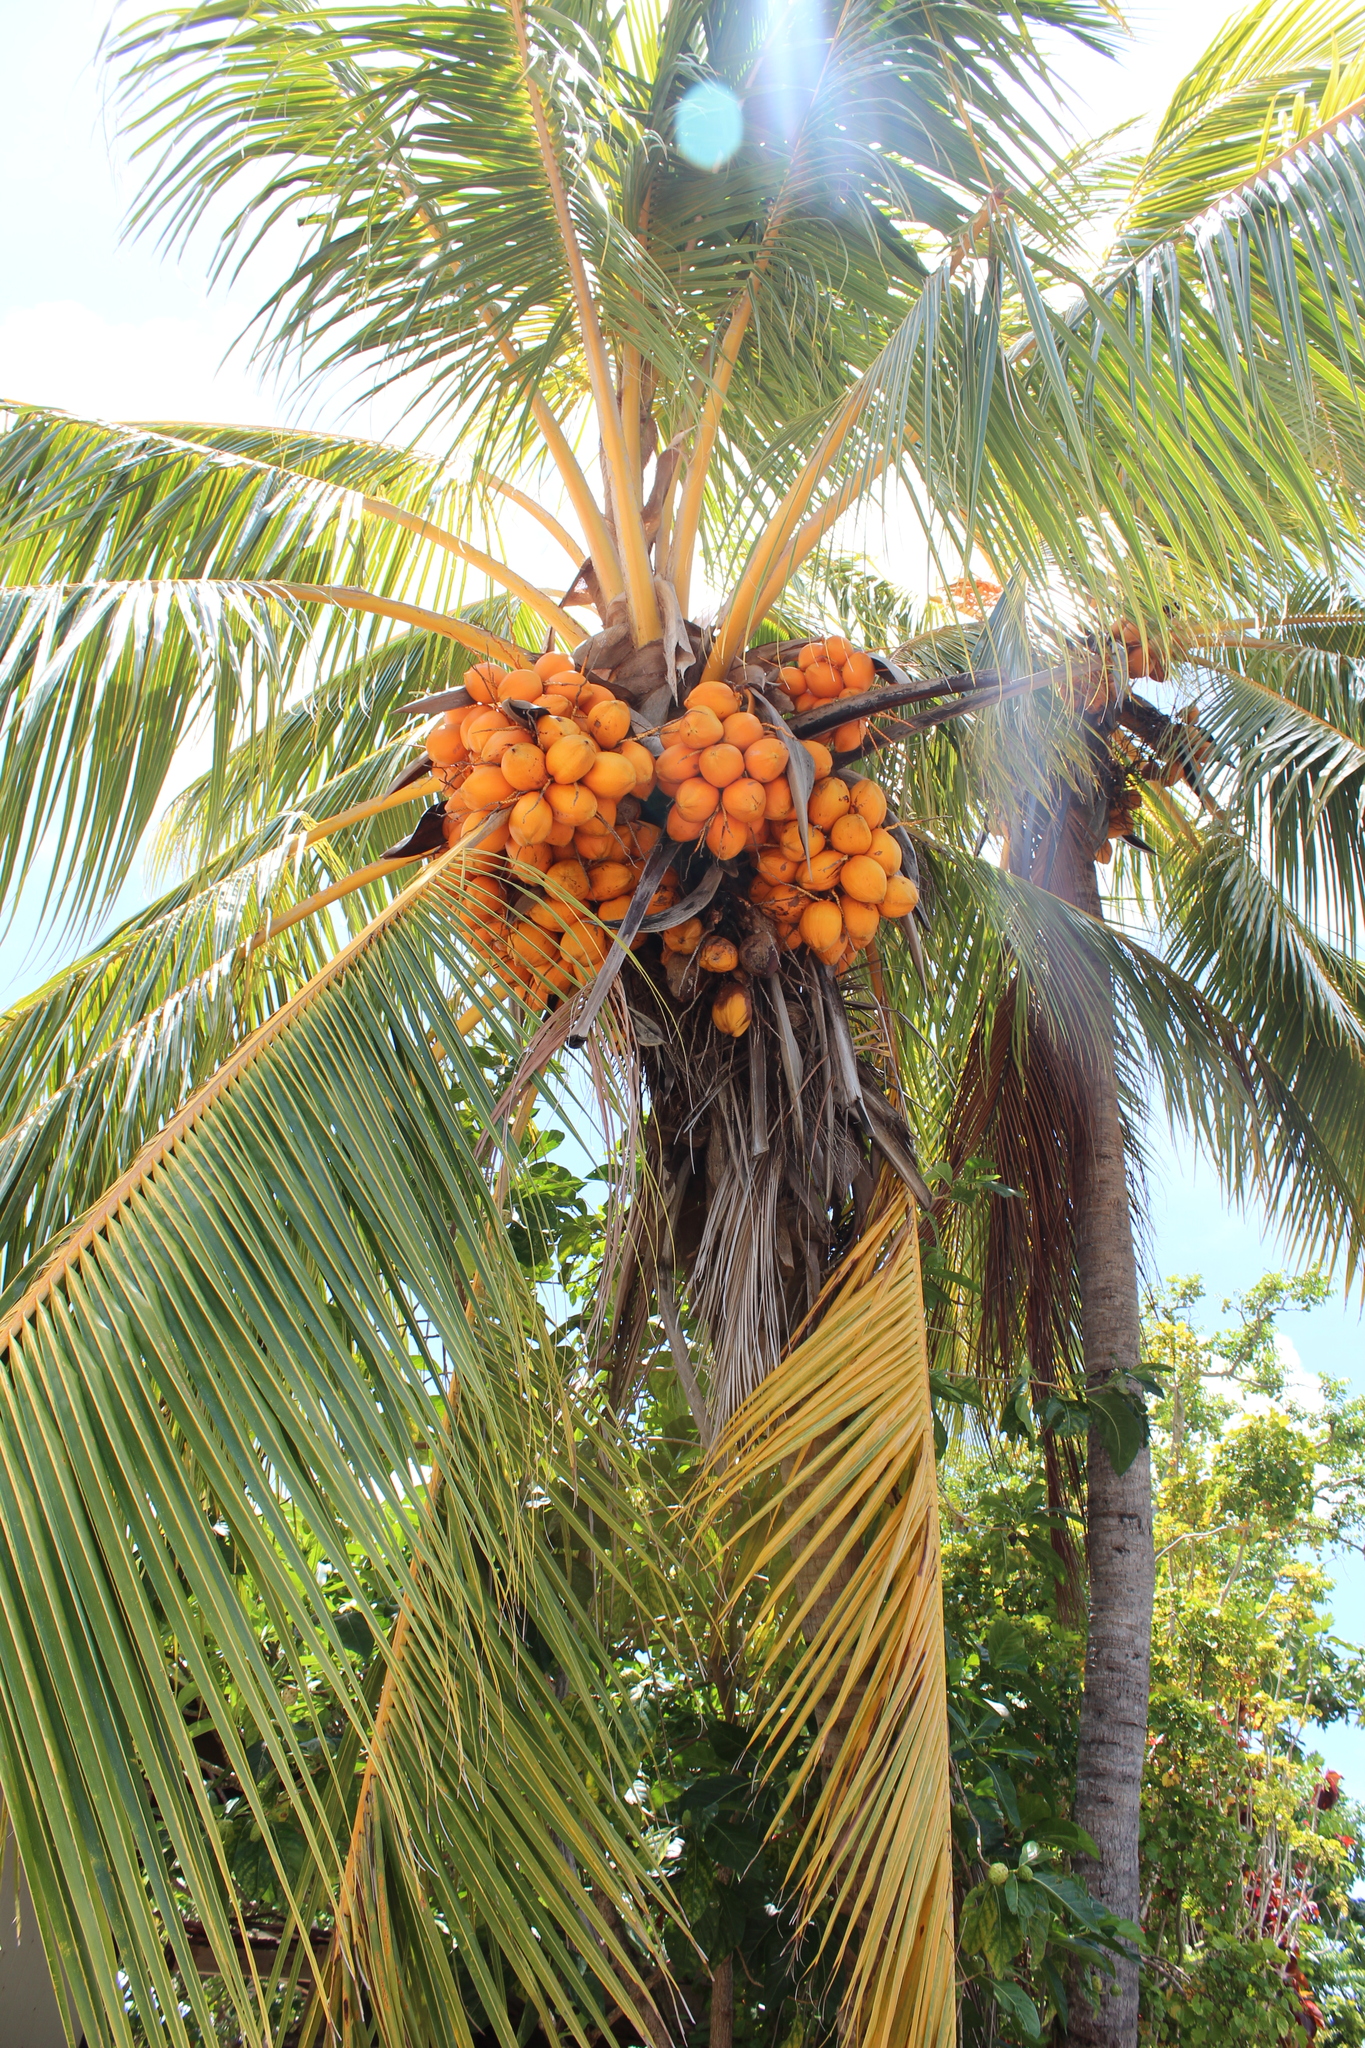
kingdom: Plantae
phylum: Tracheophyta
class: Liliopsida
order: Arecales
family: Arecaceae
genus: Cocos
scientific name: Cocos nucifera
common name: Coconut palm
